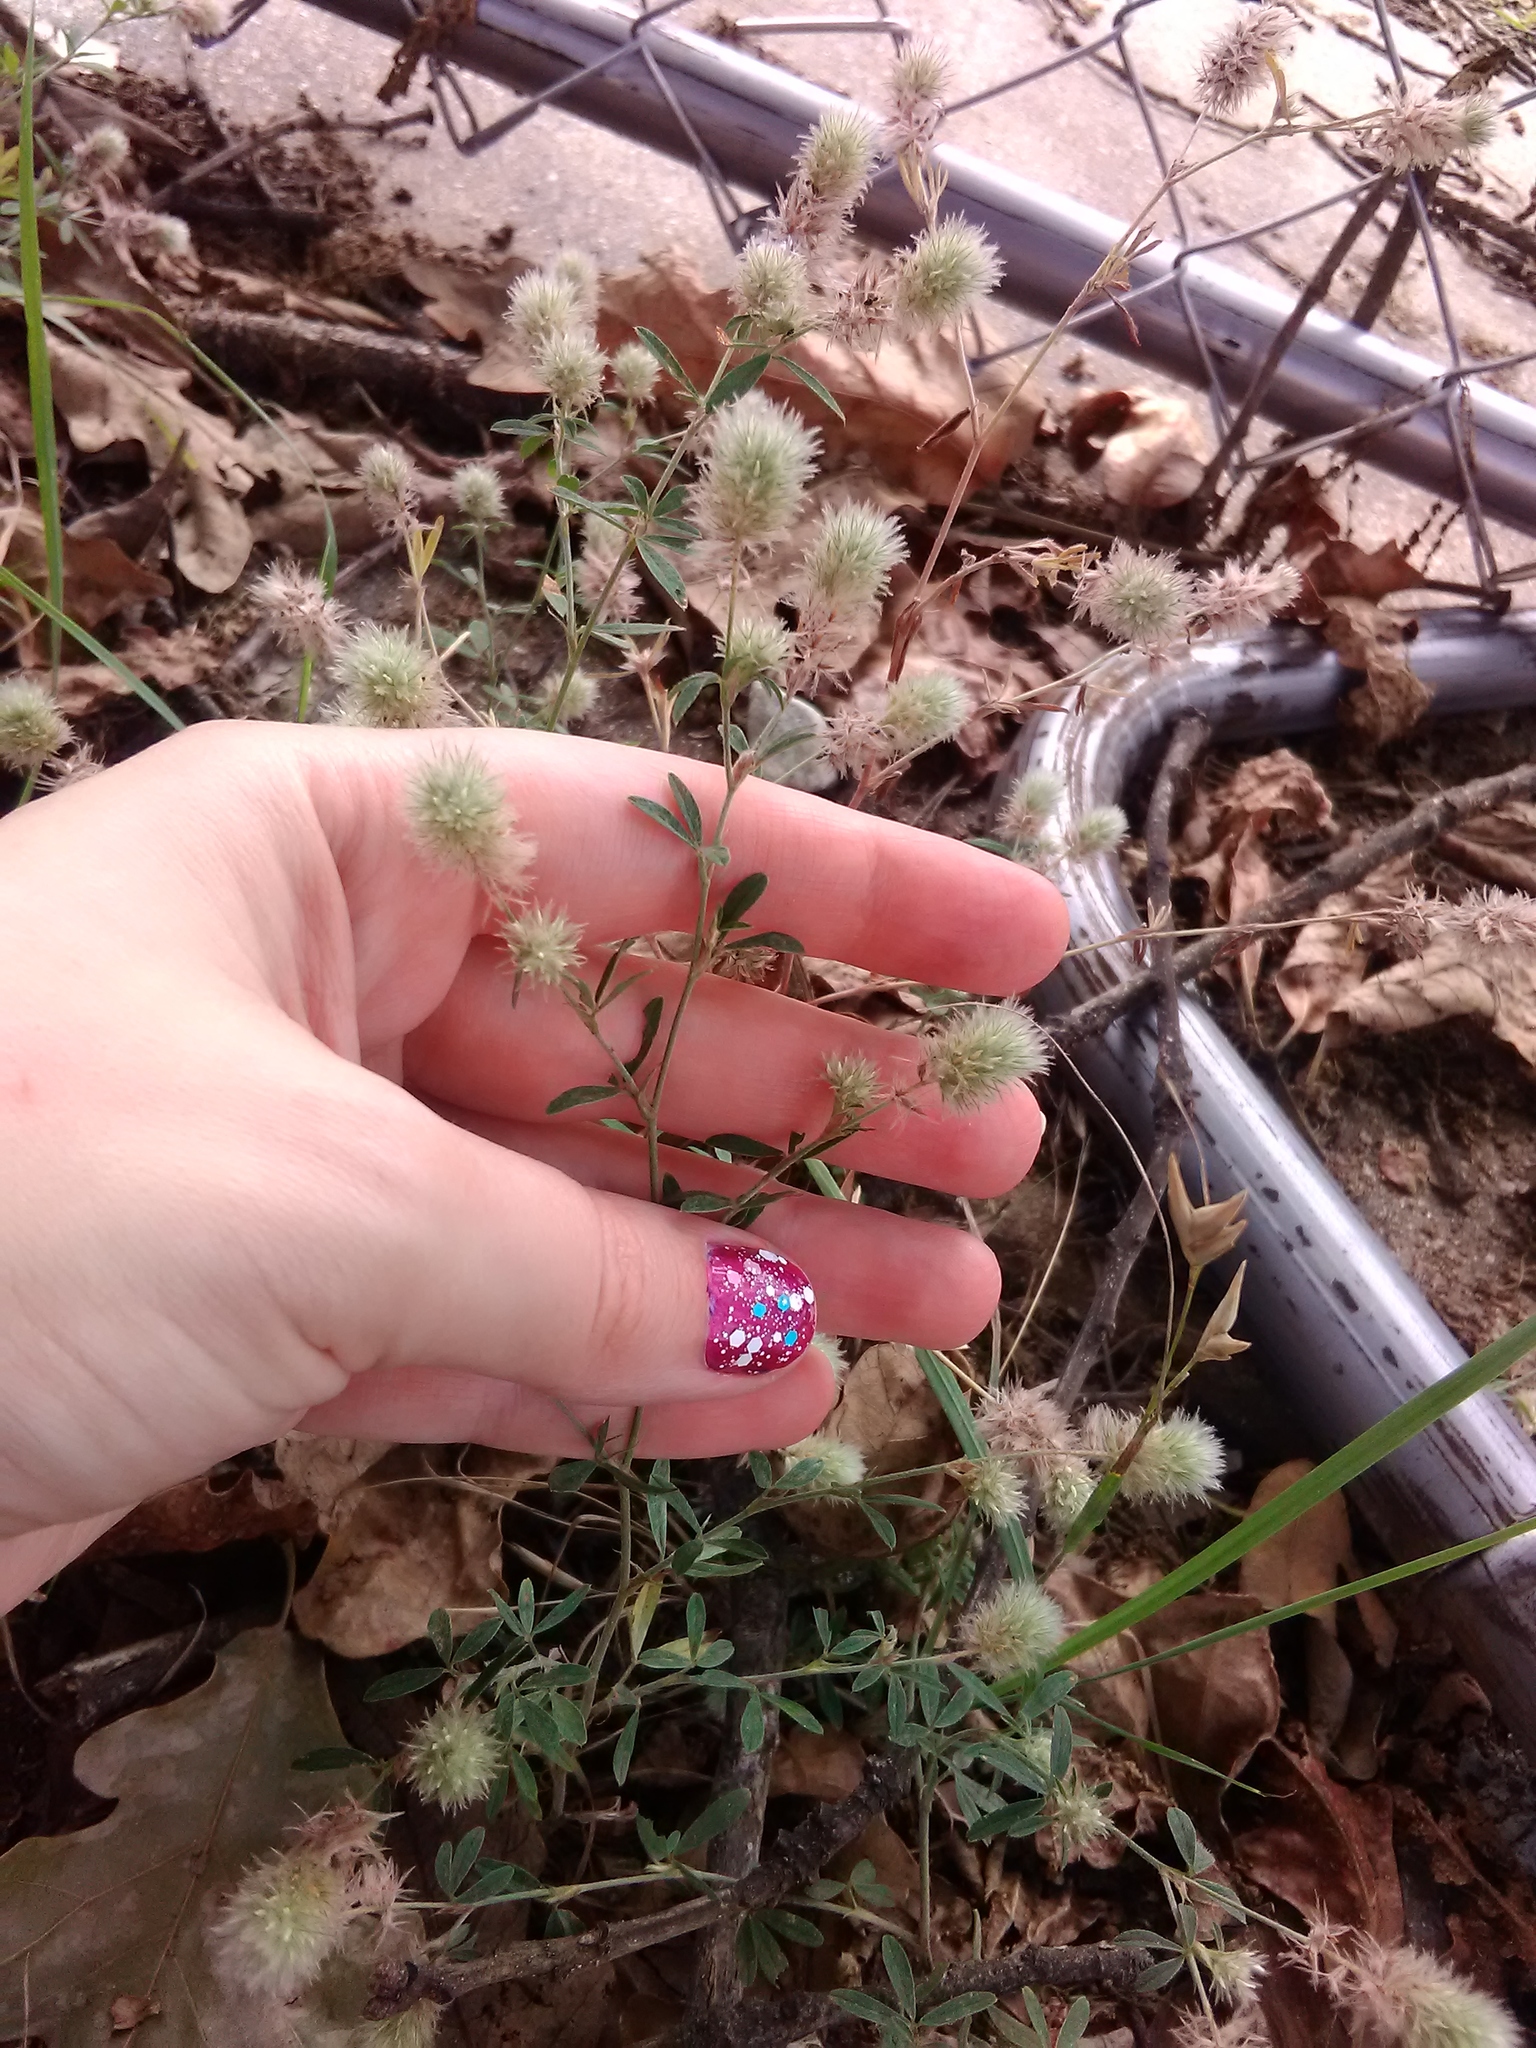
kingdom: Plantae
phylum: Tracheophyta
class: Magnoliopsida
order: Fabales
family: Fabaceae
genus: Trifolium
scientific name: Trifolium arvense
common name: Hare's-foot clover
